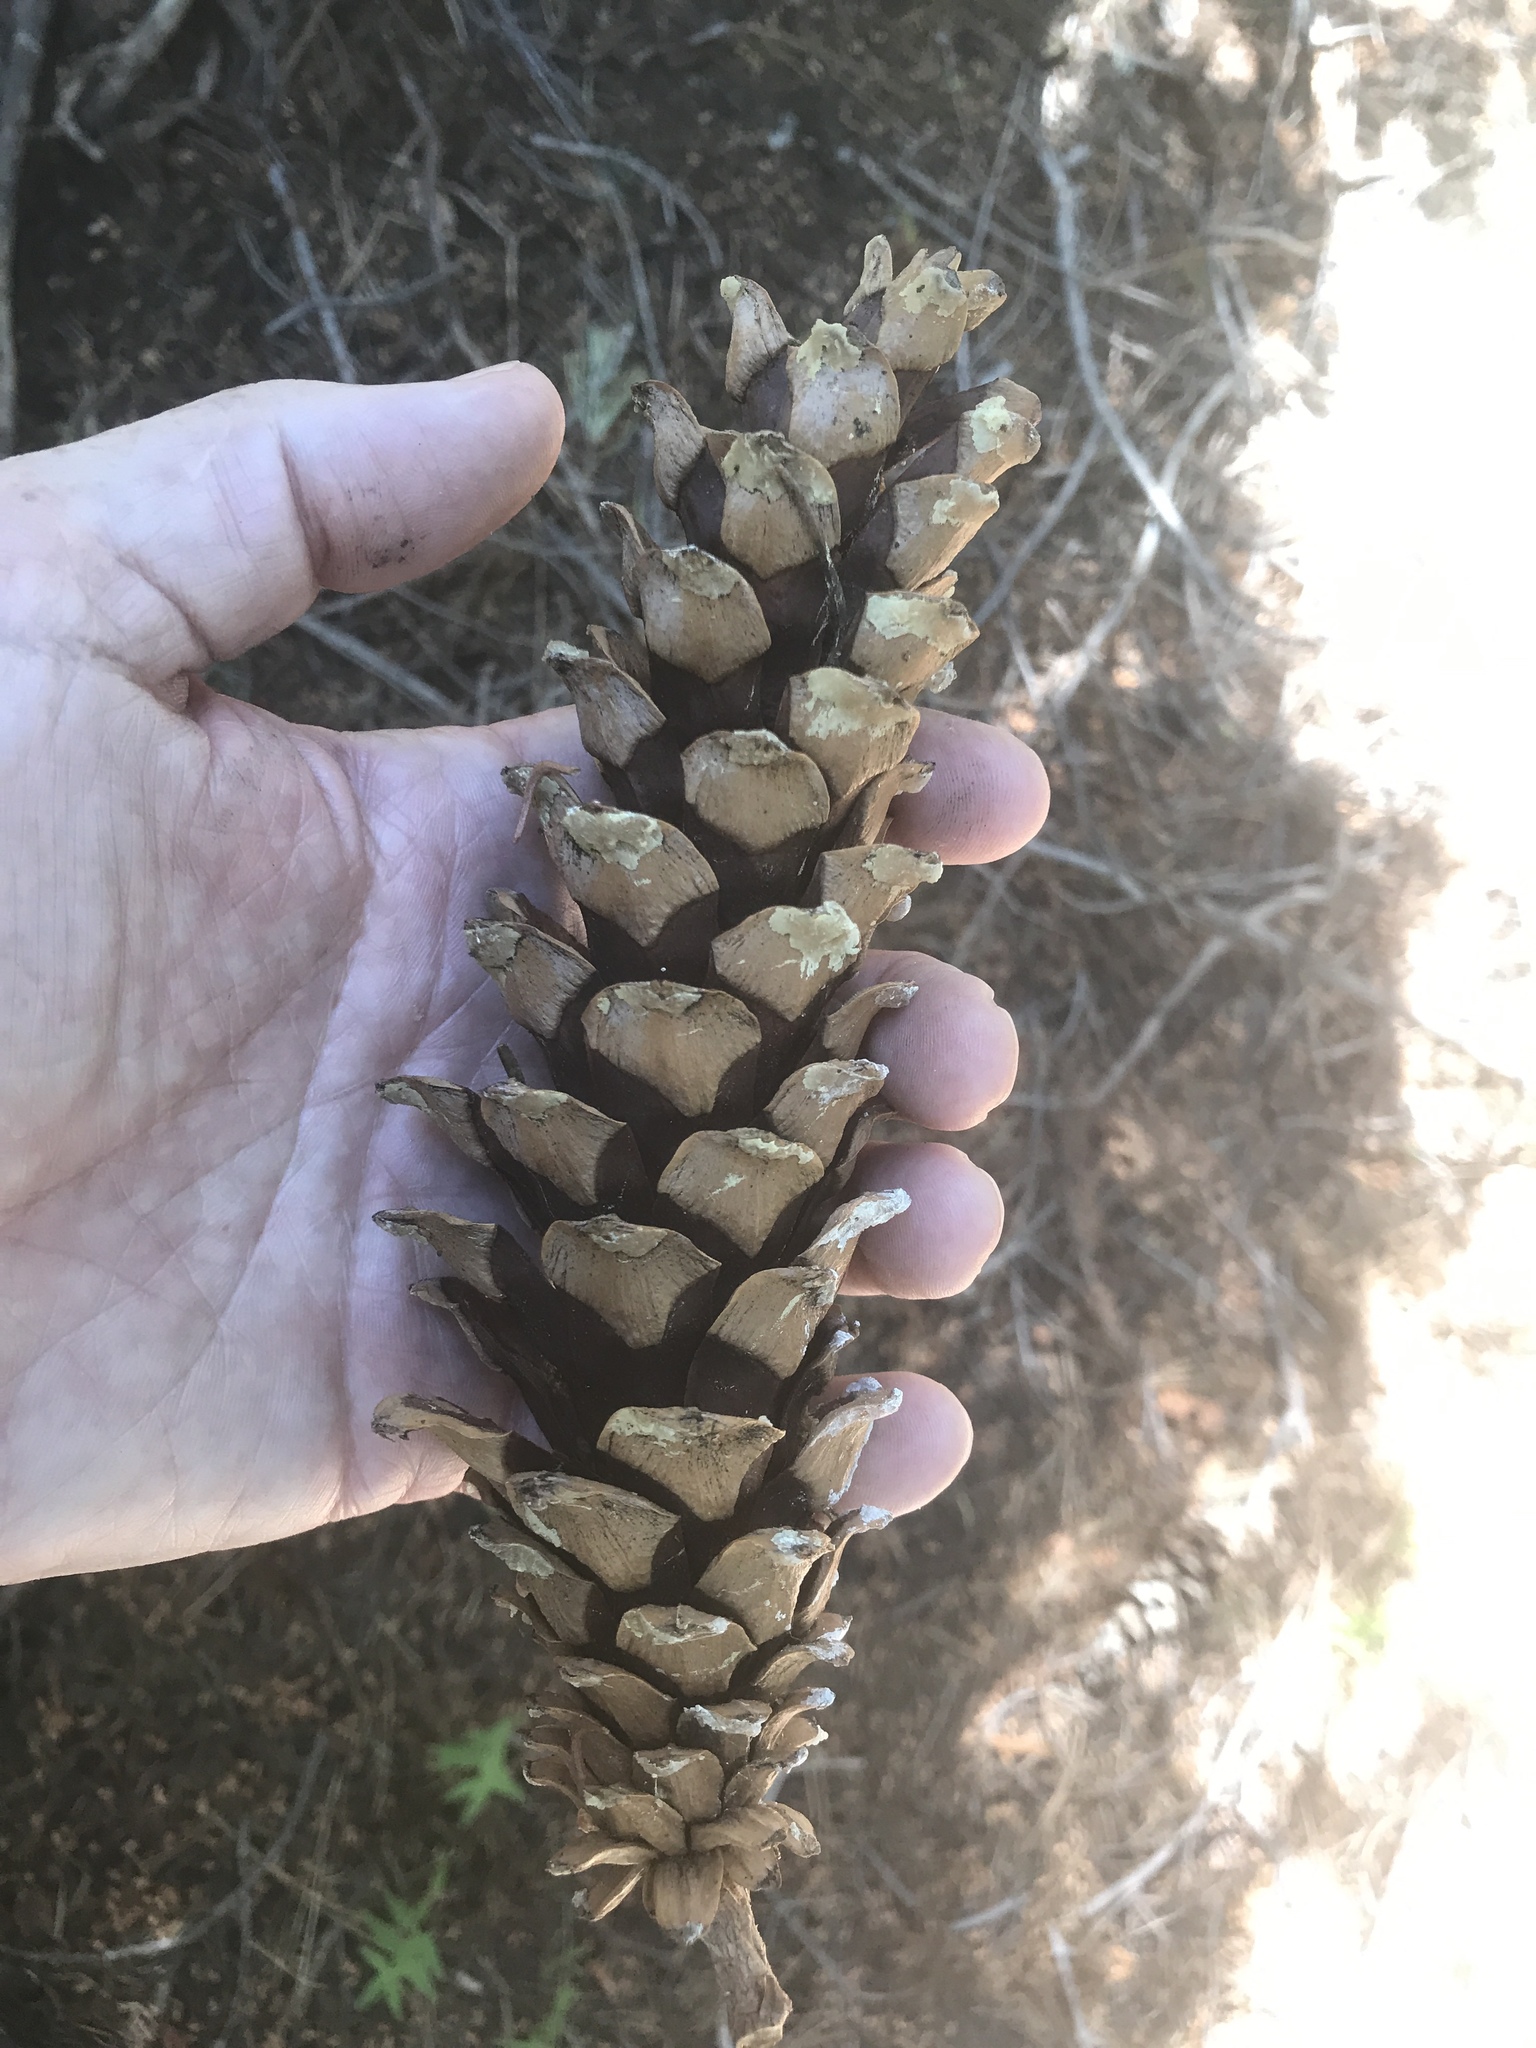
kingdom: Plantae
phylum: Tracheophyta
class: Pinopsida
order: Pinales
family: Pinaceae
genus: Pinus
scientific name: Pinus monticola
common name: Western white pine
